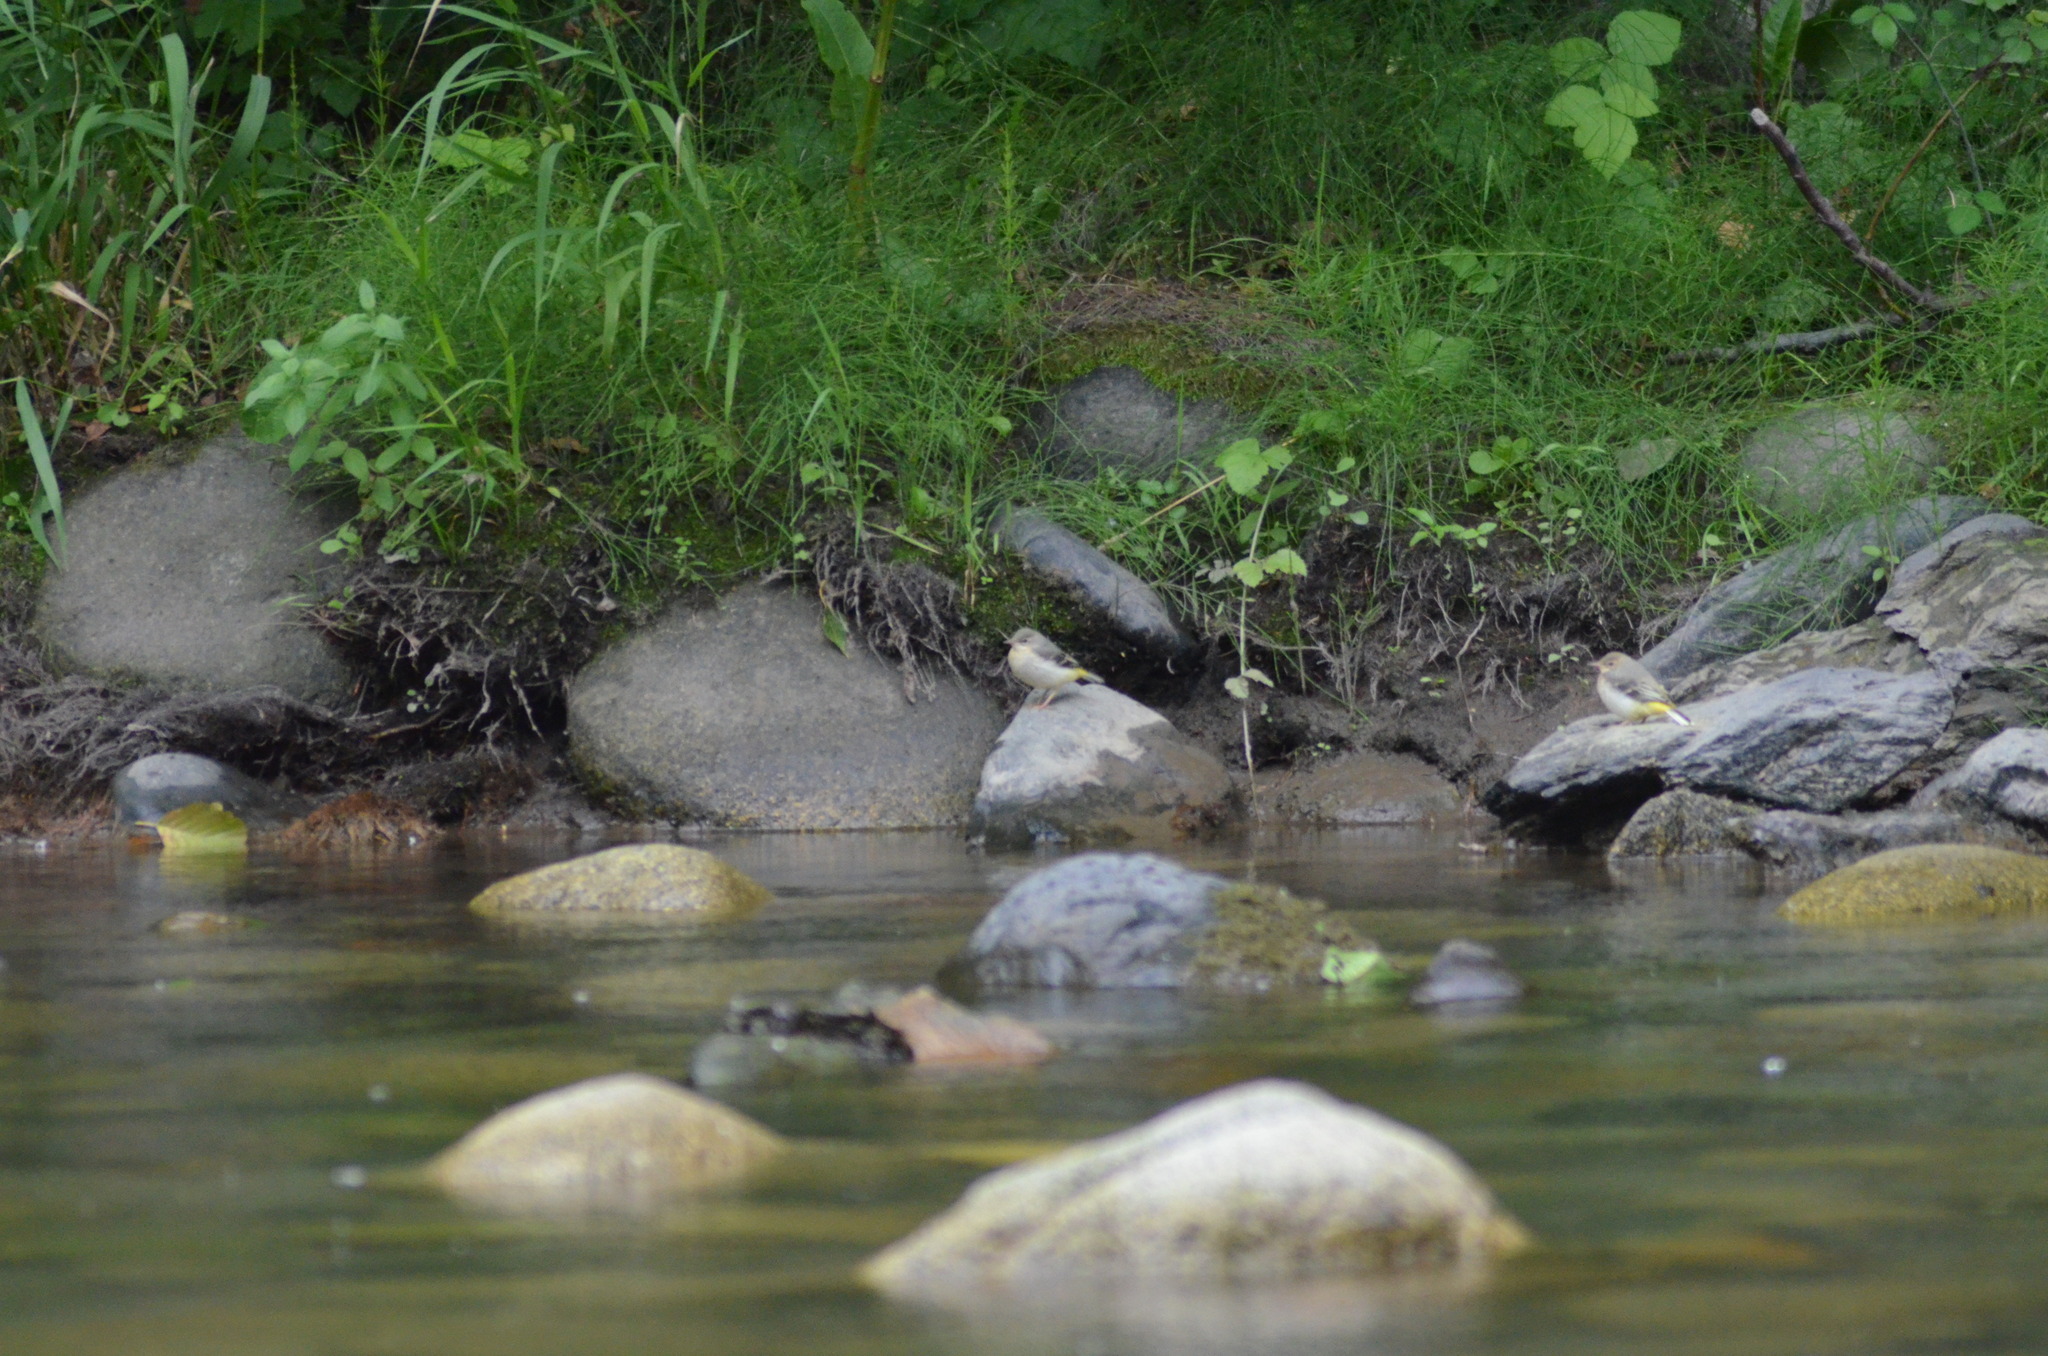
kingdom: Animalia
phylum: Chordata
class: Aves
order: Passeriformes
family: Motacillidae
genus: Motacilla
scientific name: Motacilla cinerea
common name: Grey wagtail
